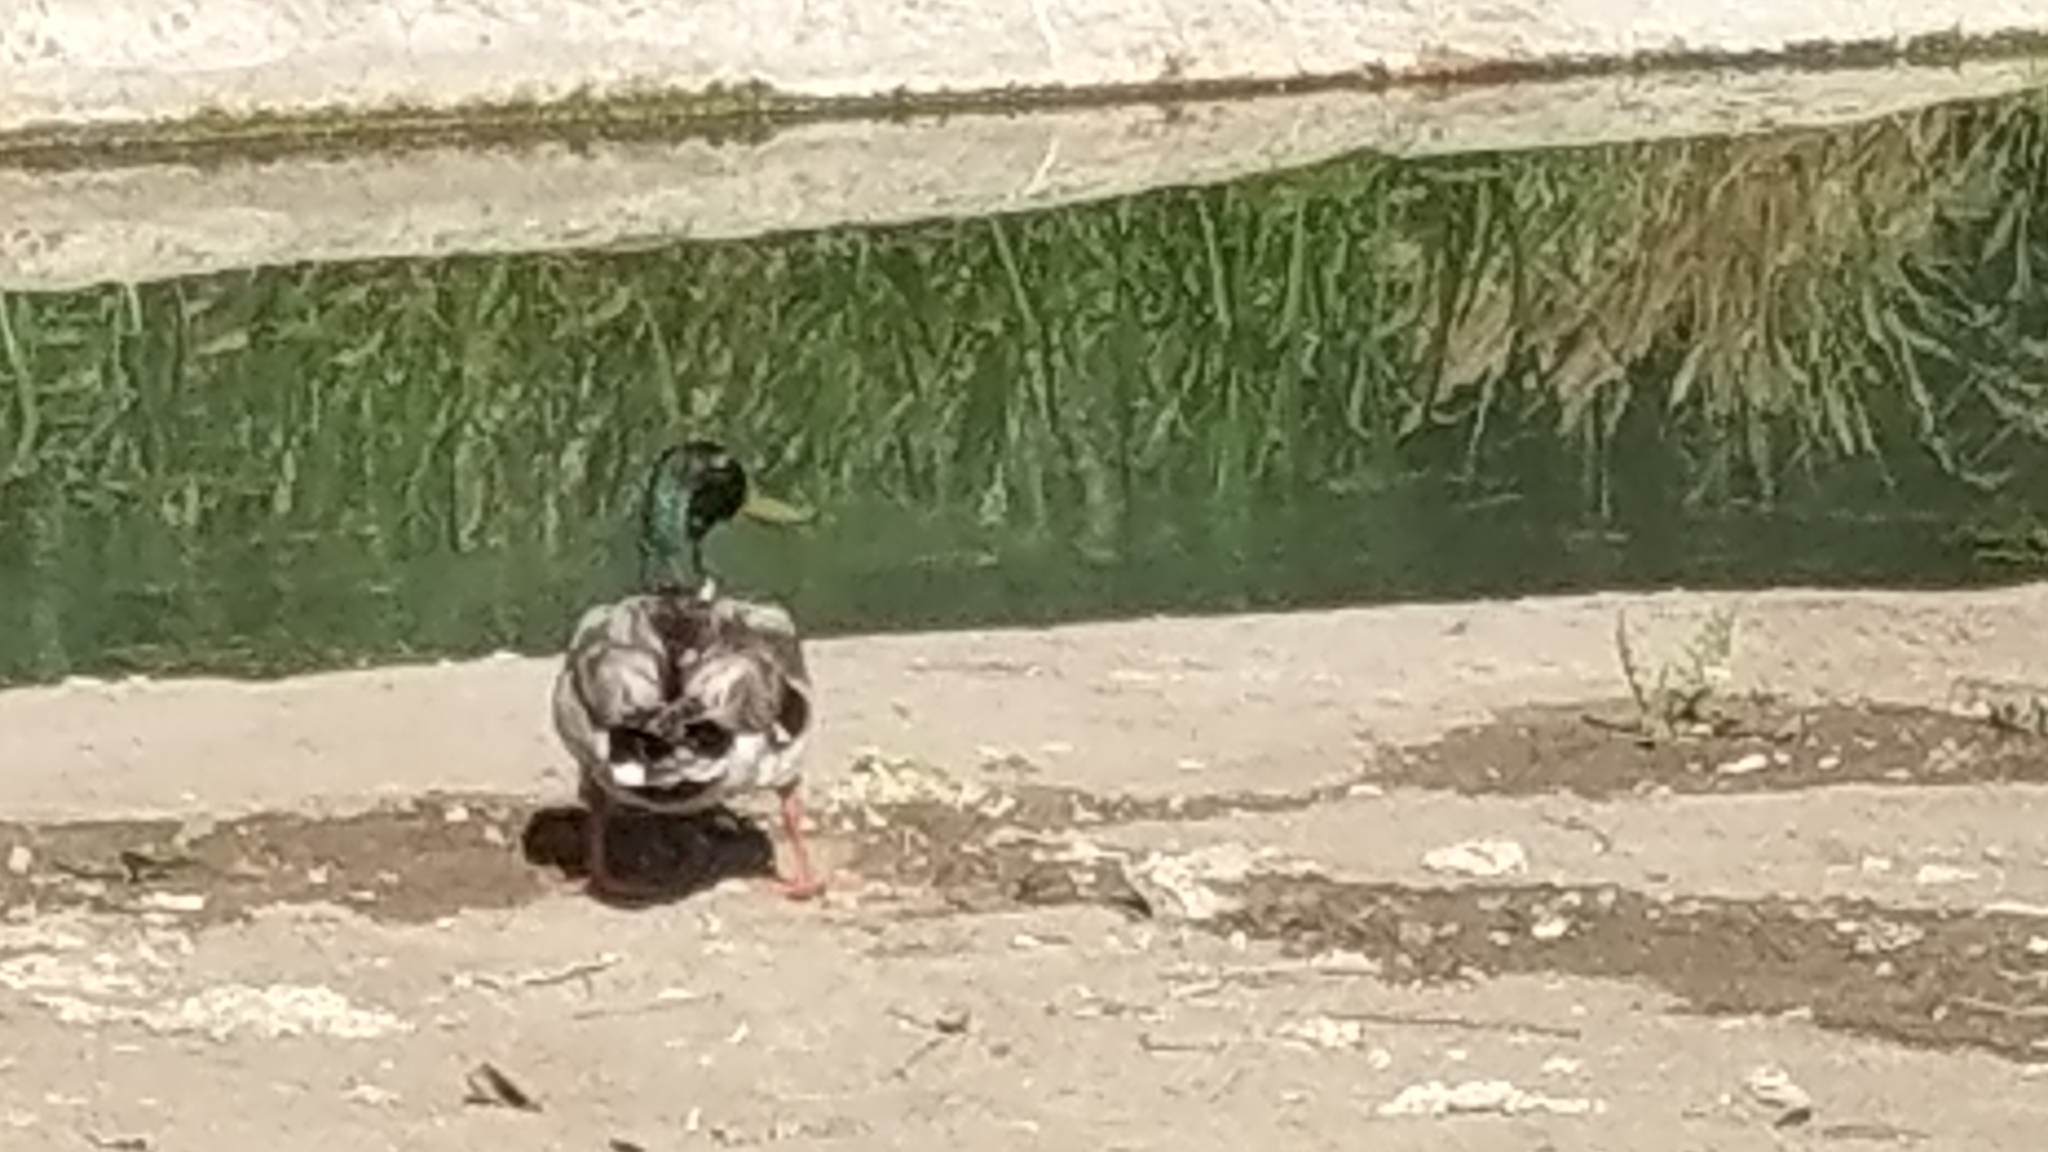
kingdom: Animalia
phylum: Chordata
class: Aves
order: Anseriformes
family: Anatidae
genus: Anas
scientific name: Anas platyrhynchos
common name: Mallard
